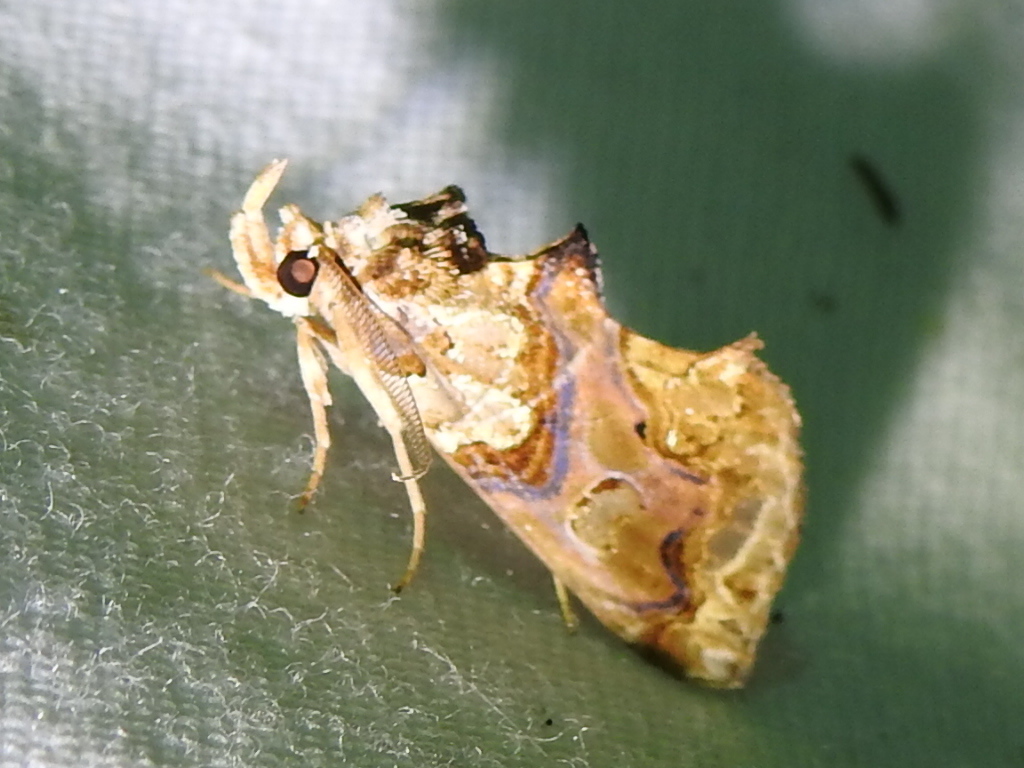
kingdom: Animalia
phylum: Arthropoda
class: Insecta
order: Lepidoptera
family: Erebidae
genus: Plusiodonta
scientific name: Plusiodonta compressipalpis
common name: Moonseed moth
